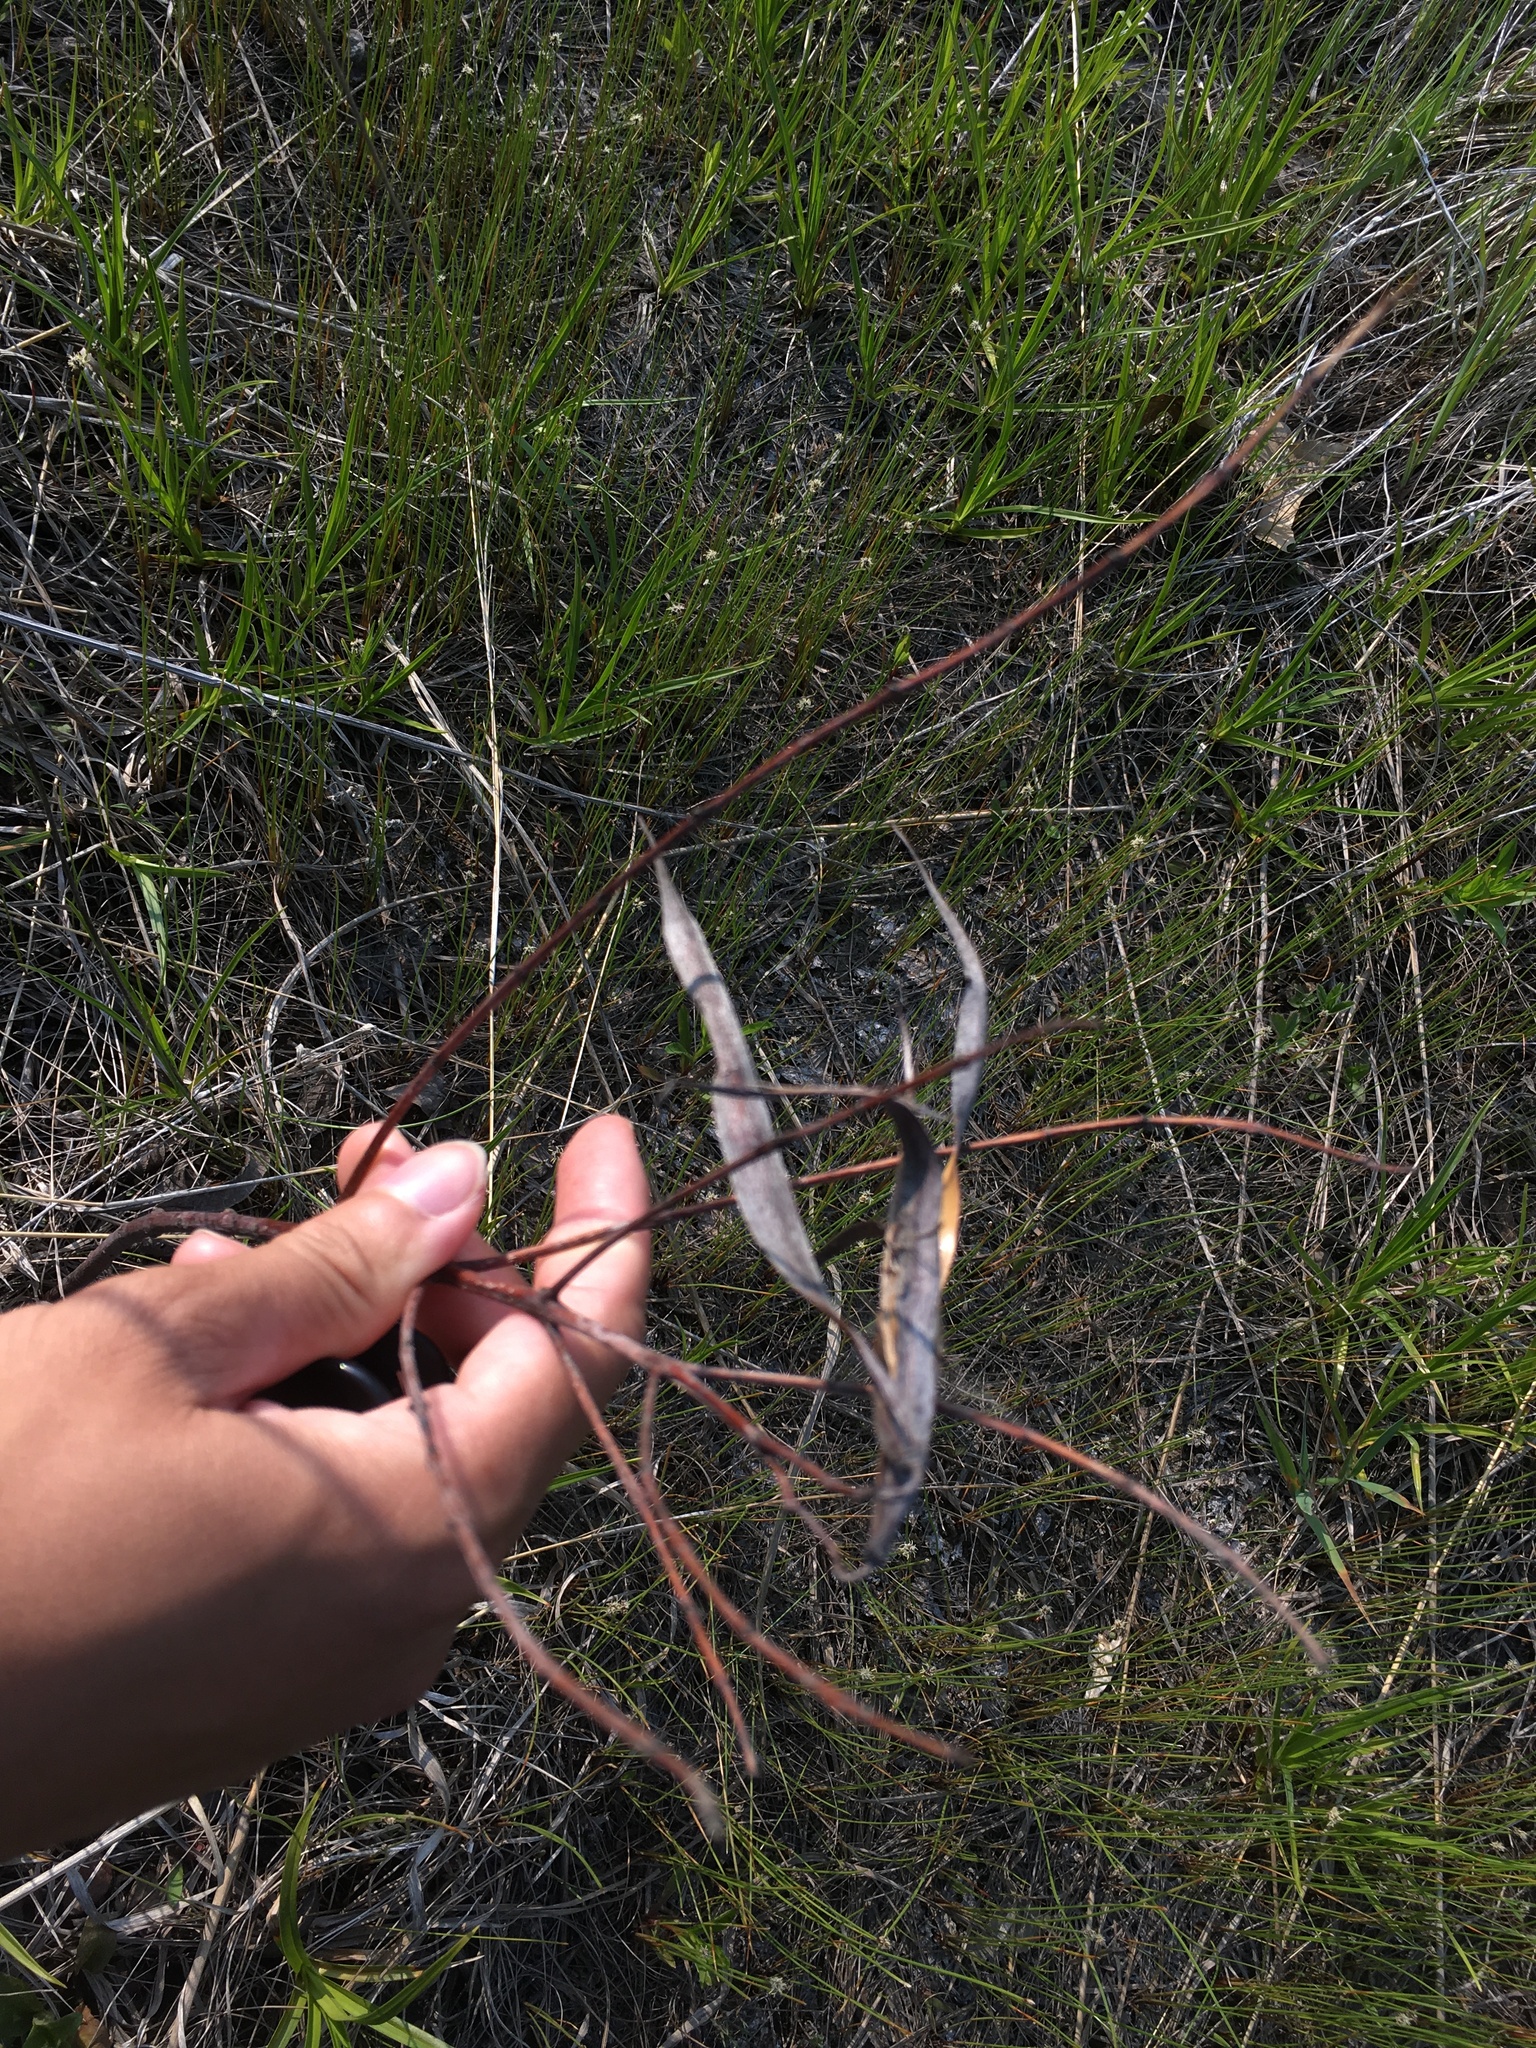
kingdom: Plantae
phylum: Tracheophyta
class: Magnoliopsida
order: Gentianales
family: Apocynaceae
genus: Apocynum
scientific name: Apocynum cannabinum
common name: Hemp dogbane
